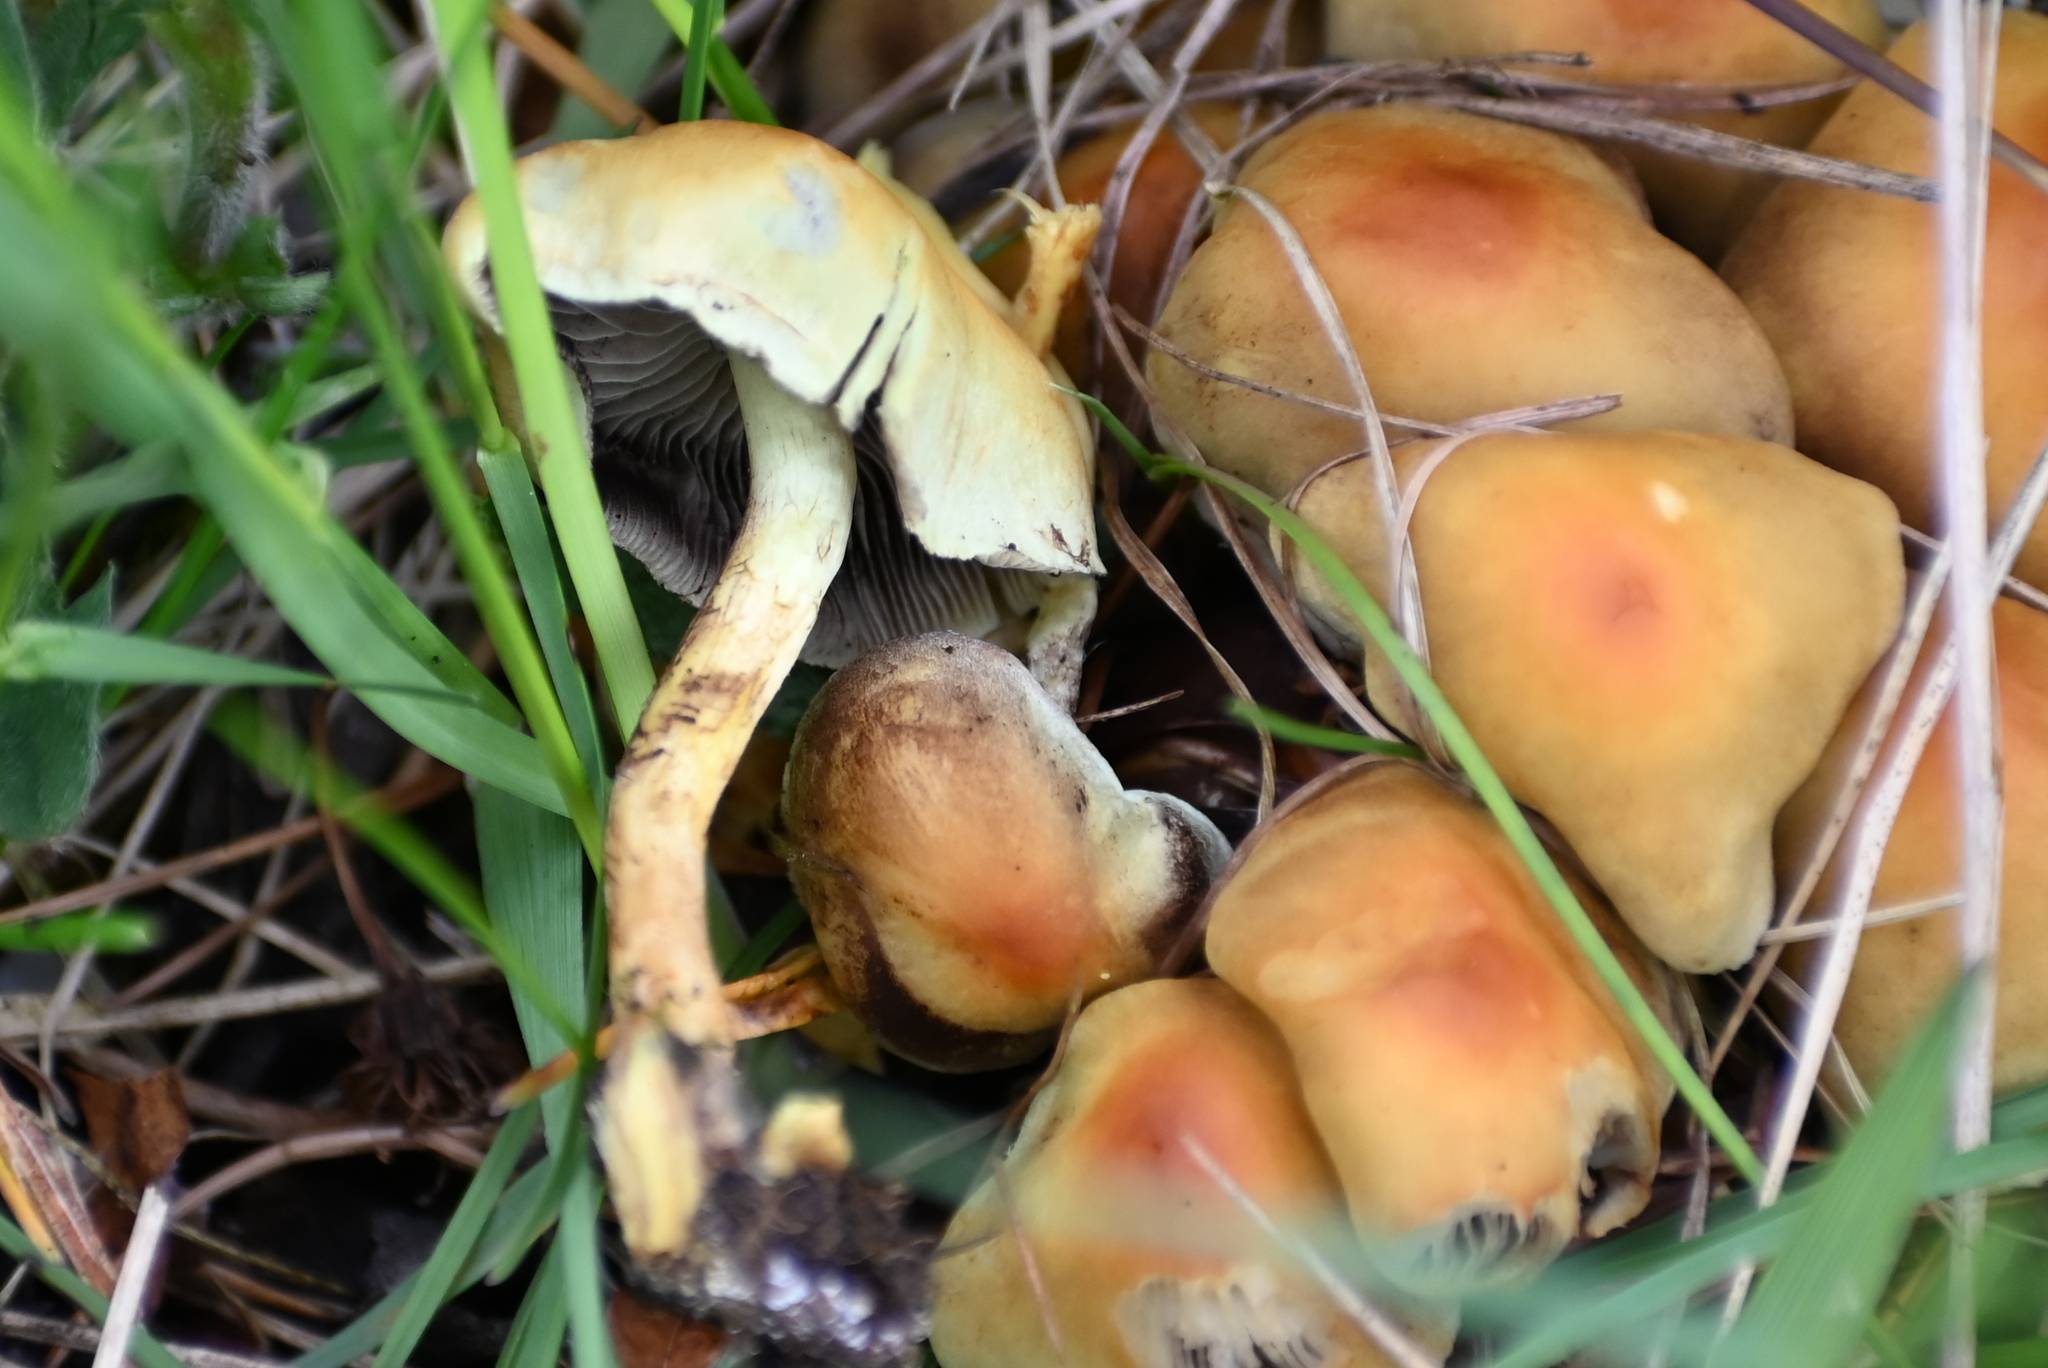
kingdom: Fungi
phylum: Basidiomycota
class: Agaricomycetes
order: Agaricales
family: Strophariaceae
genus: Hypholoma
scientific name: Hypholoma fasciculare
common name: Sulphur tuft
